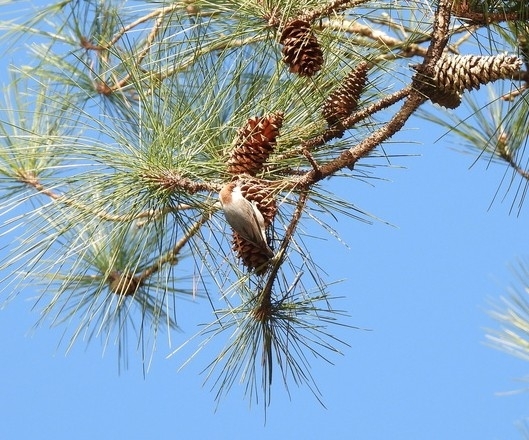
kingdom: Animalia
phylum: Chordata
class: Aves
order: Passeriformes
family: Sittidae
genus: Sitta
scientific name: Sitta pusilla
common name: Brown-headed nuthatch
